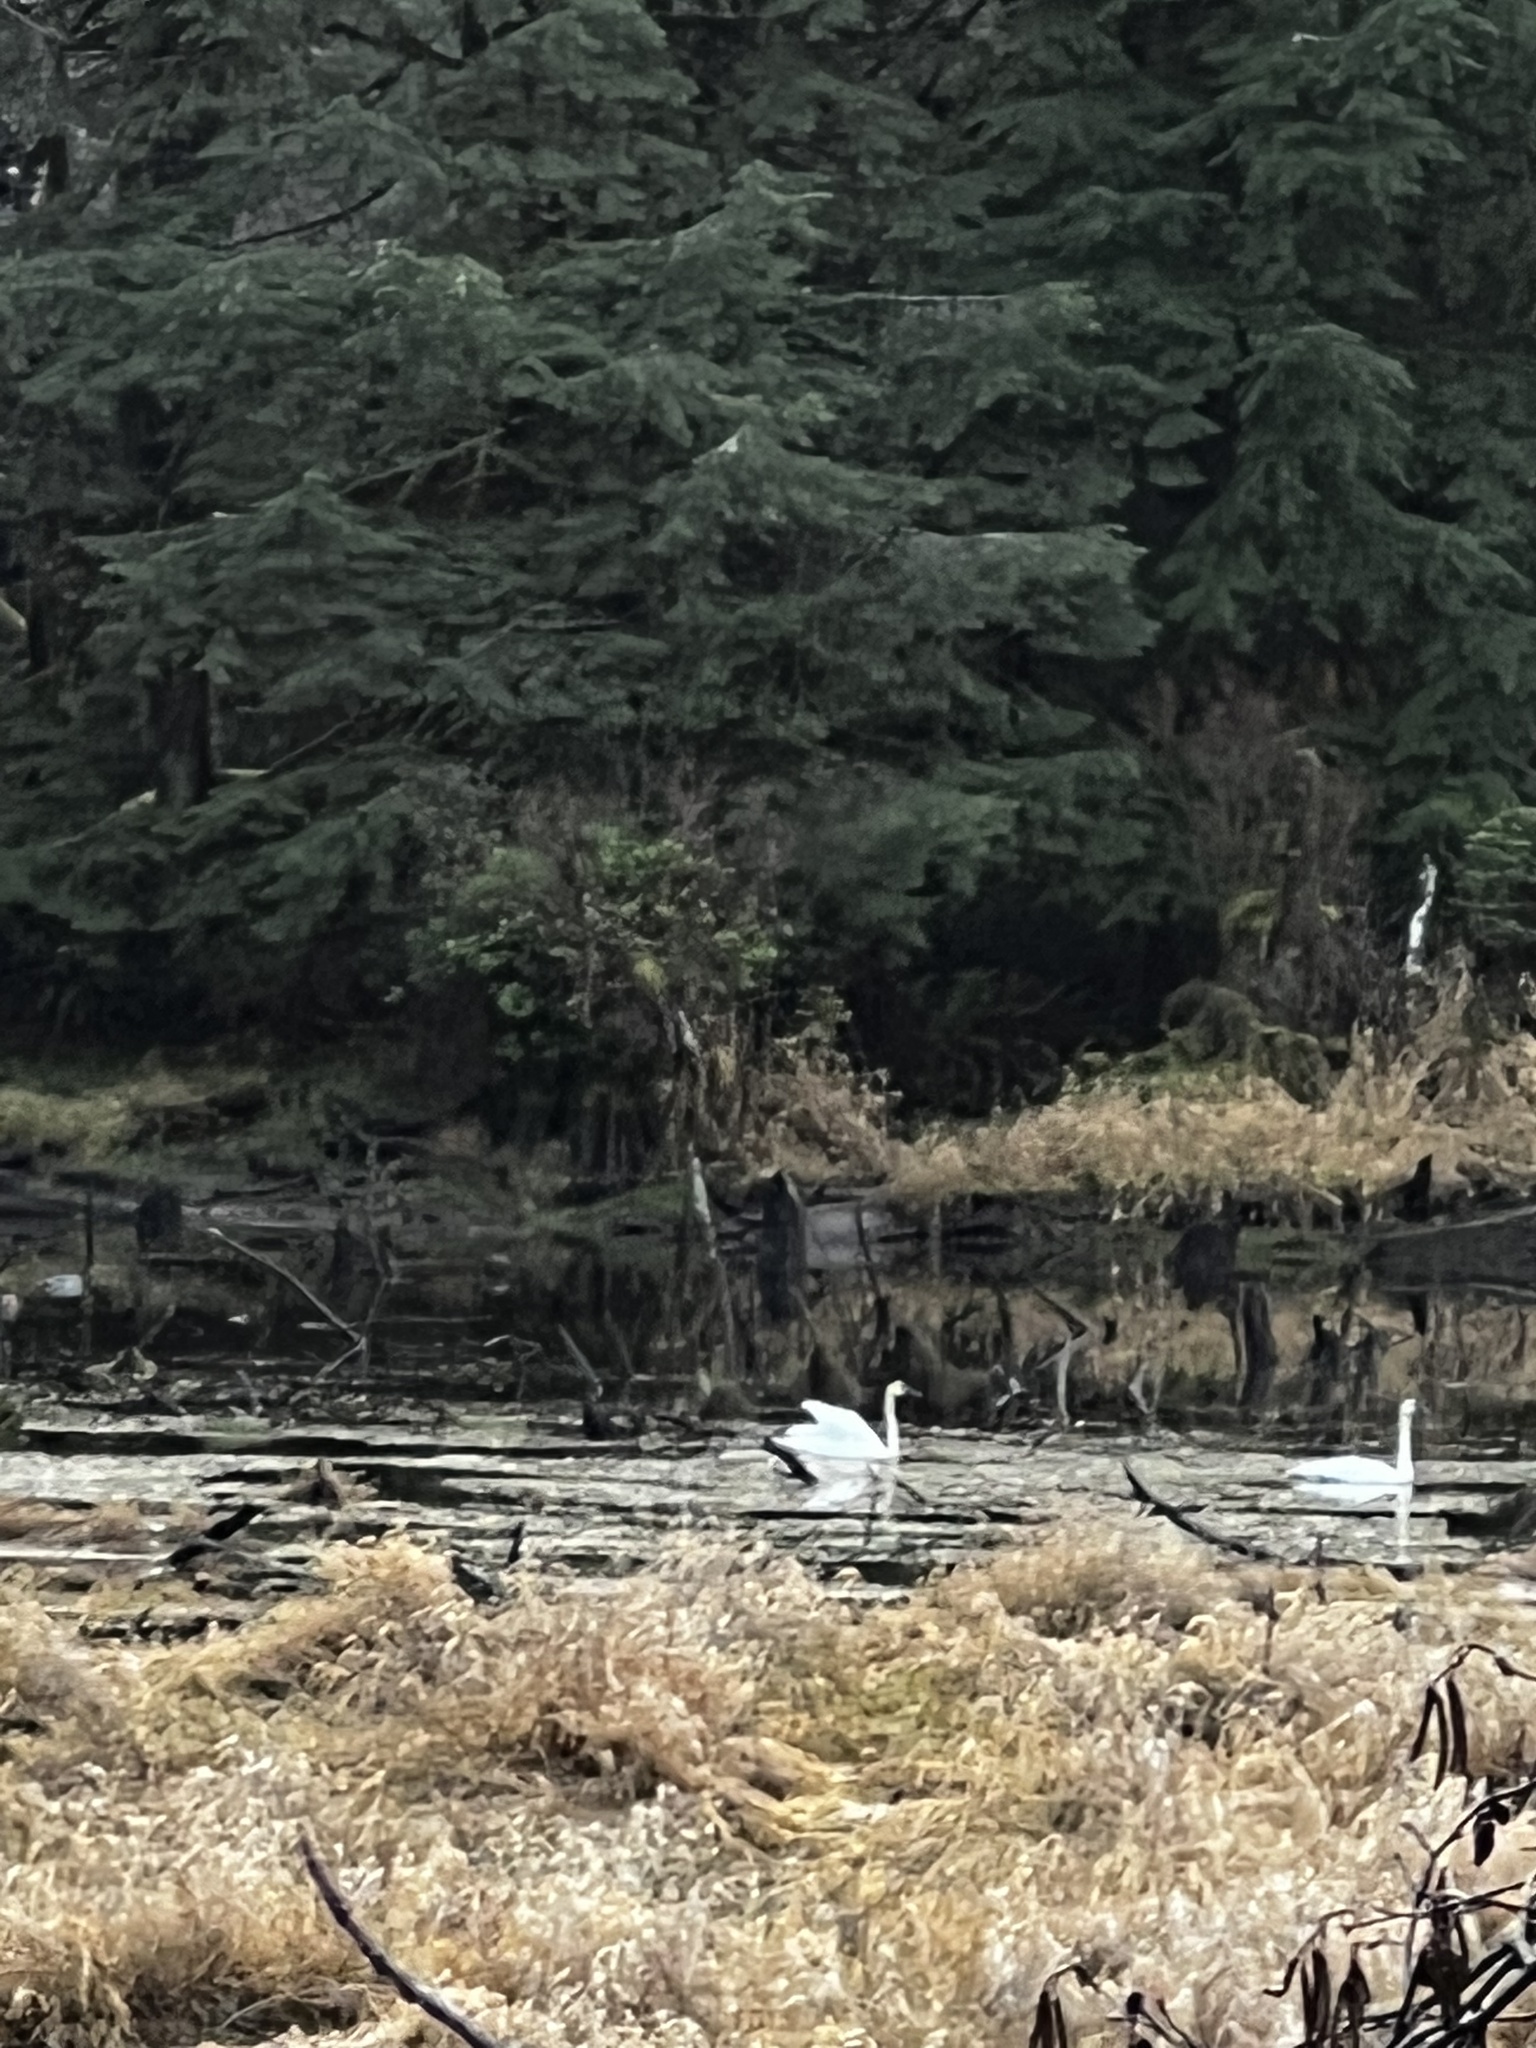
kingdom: Animalia
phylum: Chordata
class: Aves
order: Anseriformes
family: Anatidae
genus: Cygnus
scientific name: Cygnus buccinator
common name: Trumpeter swan
